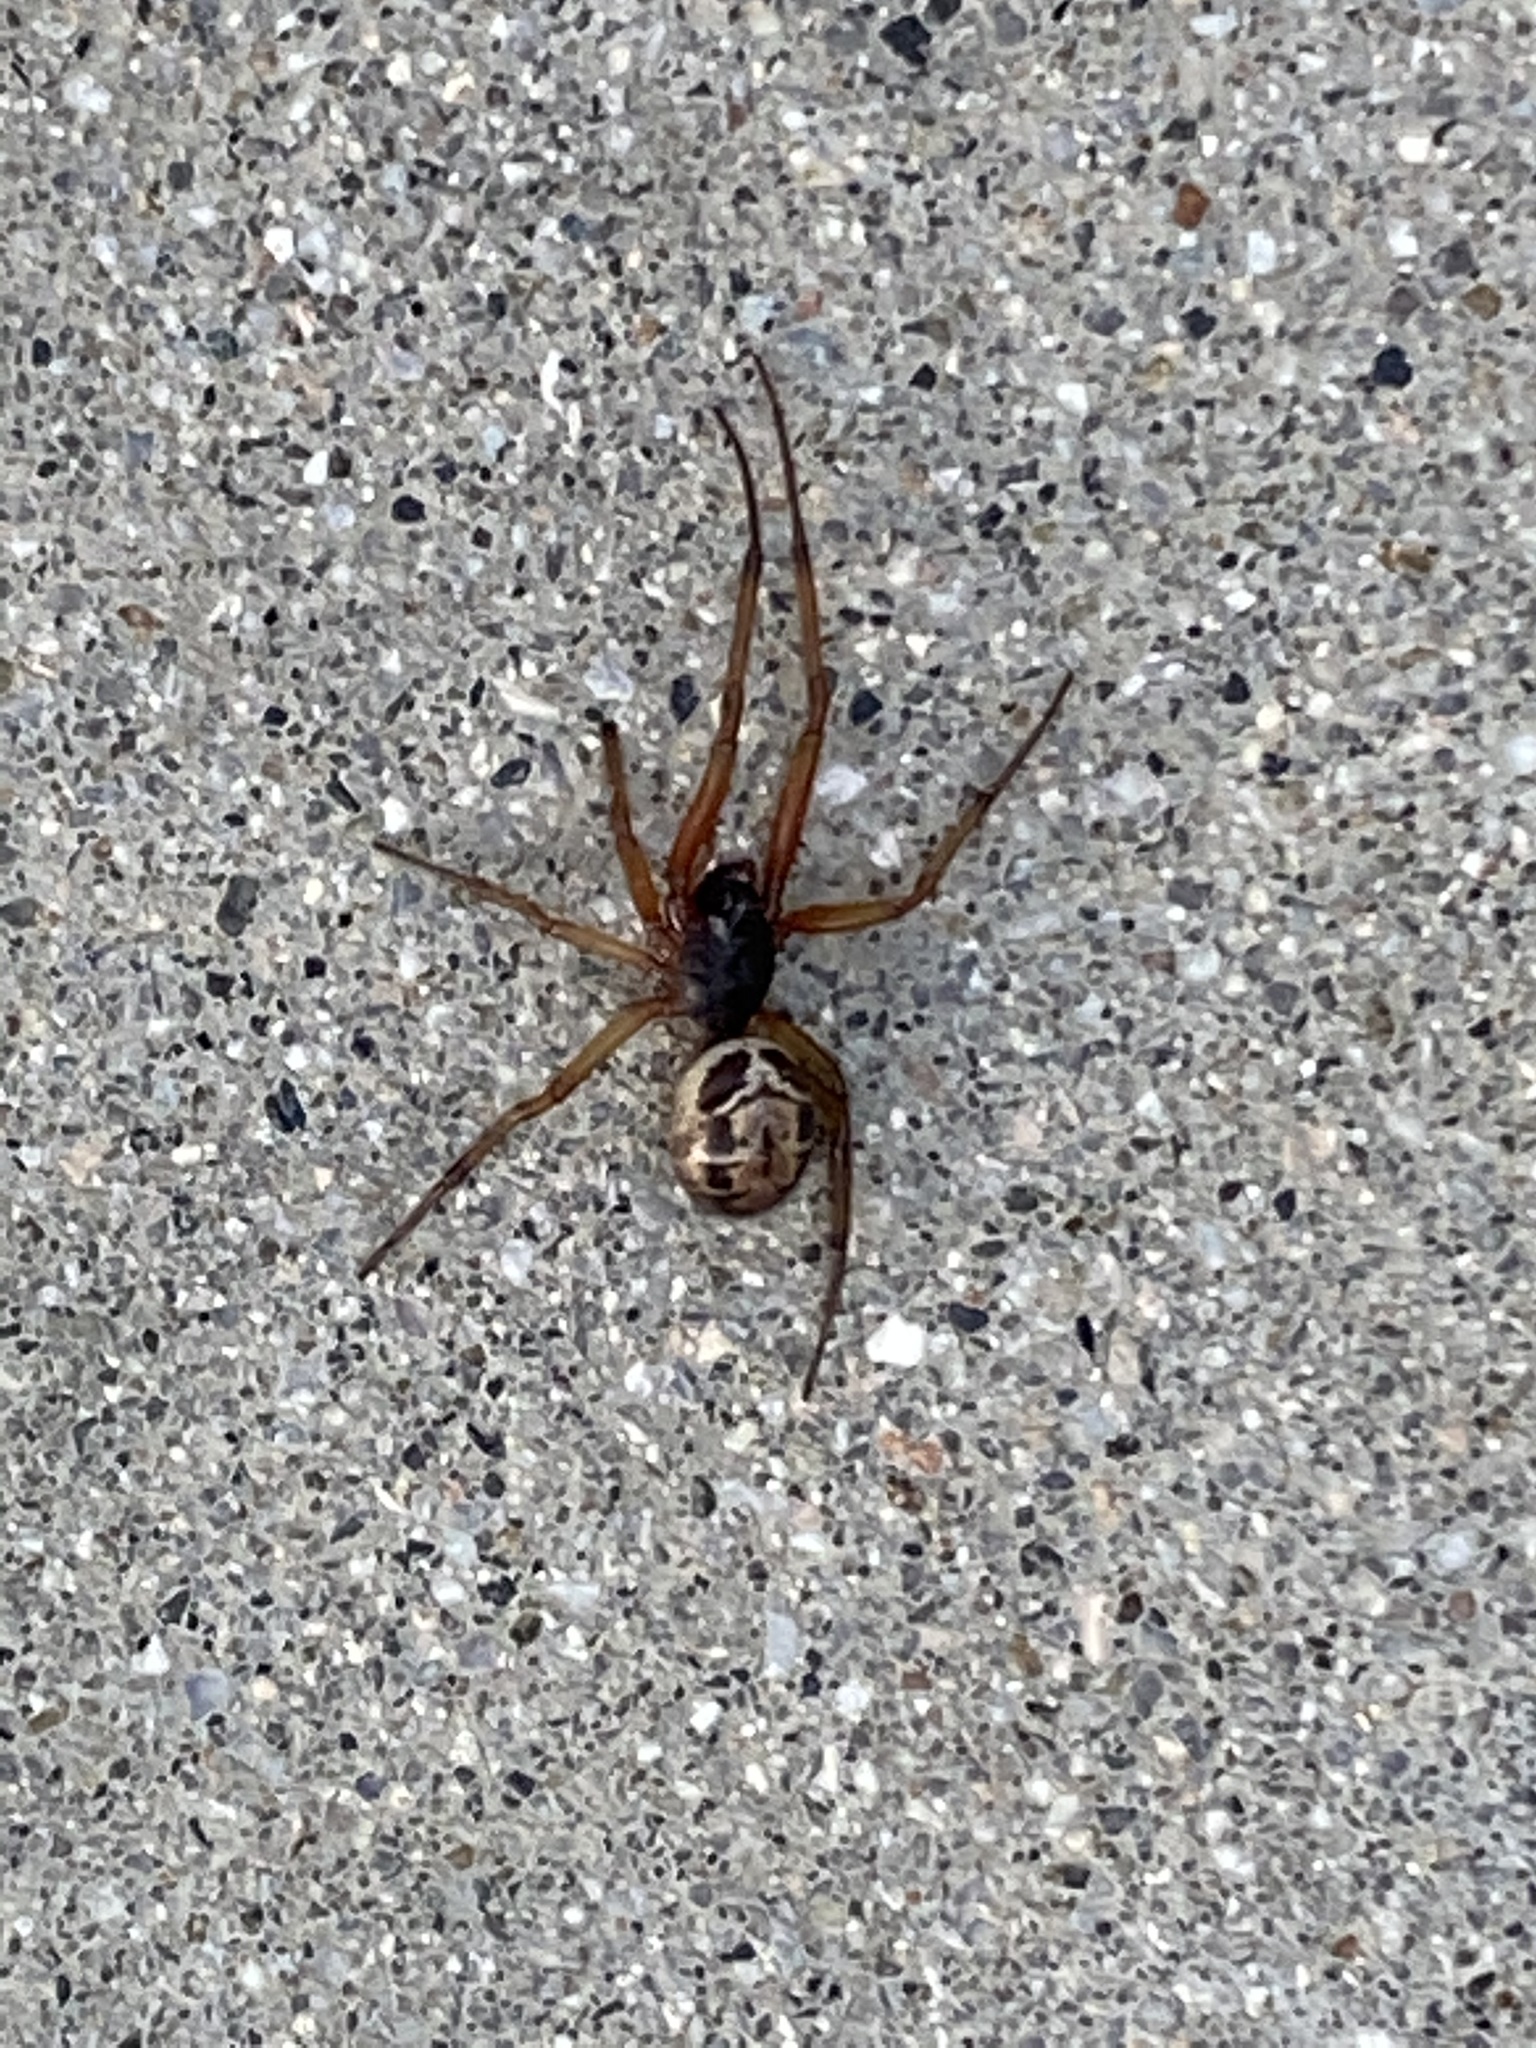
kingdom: Animalia
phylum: Arthropoda
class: Arachnida
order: Araneae
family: Theridiidae
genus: Steatoda
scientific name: Steatoda nobilis
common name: Cobweb weaver
